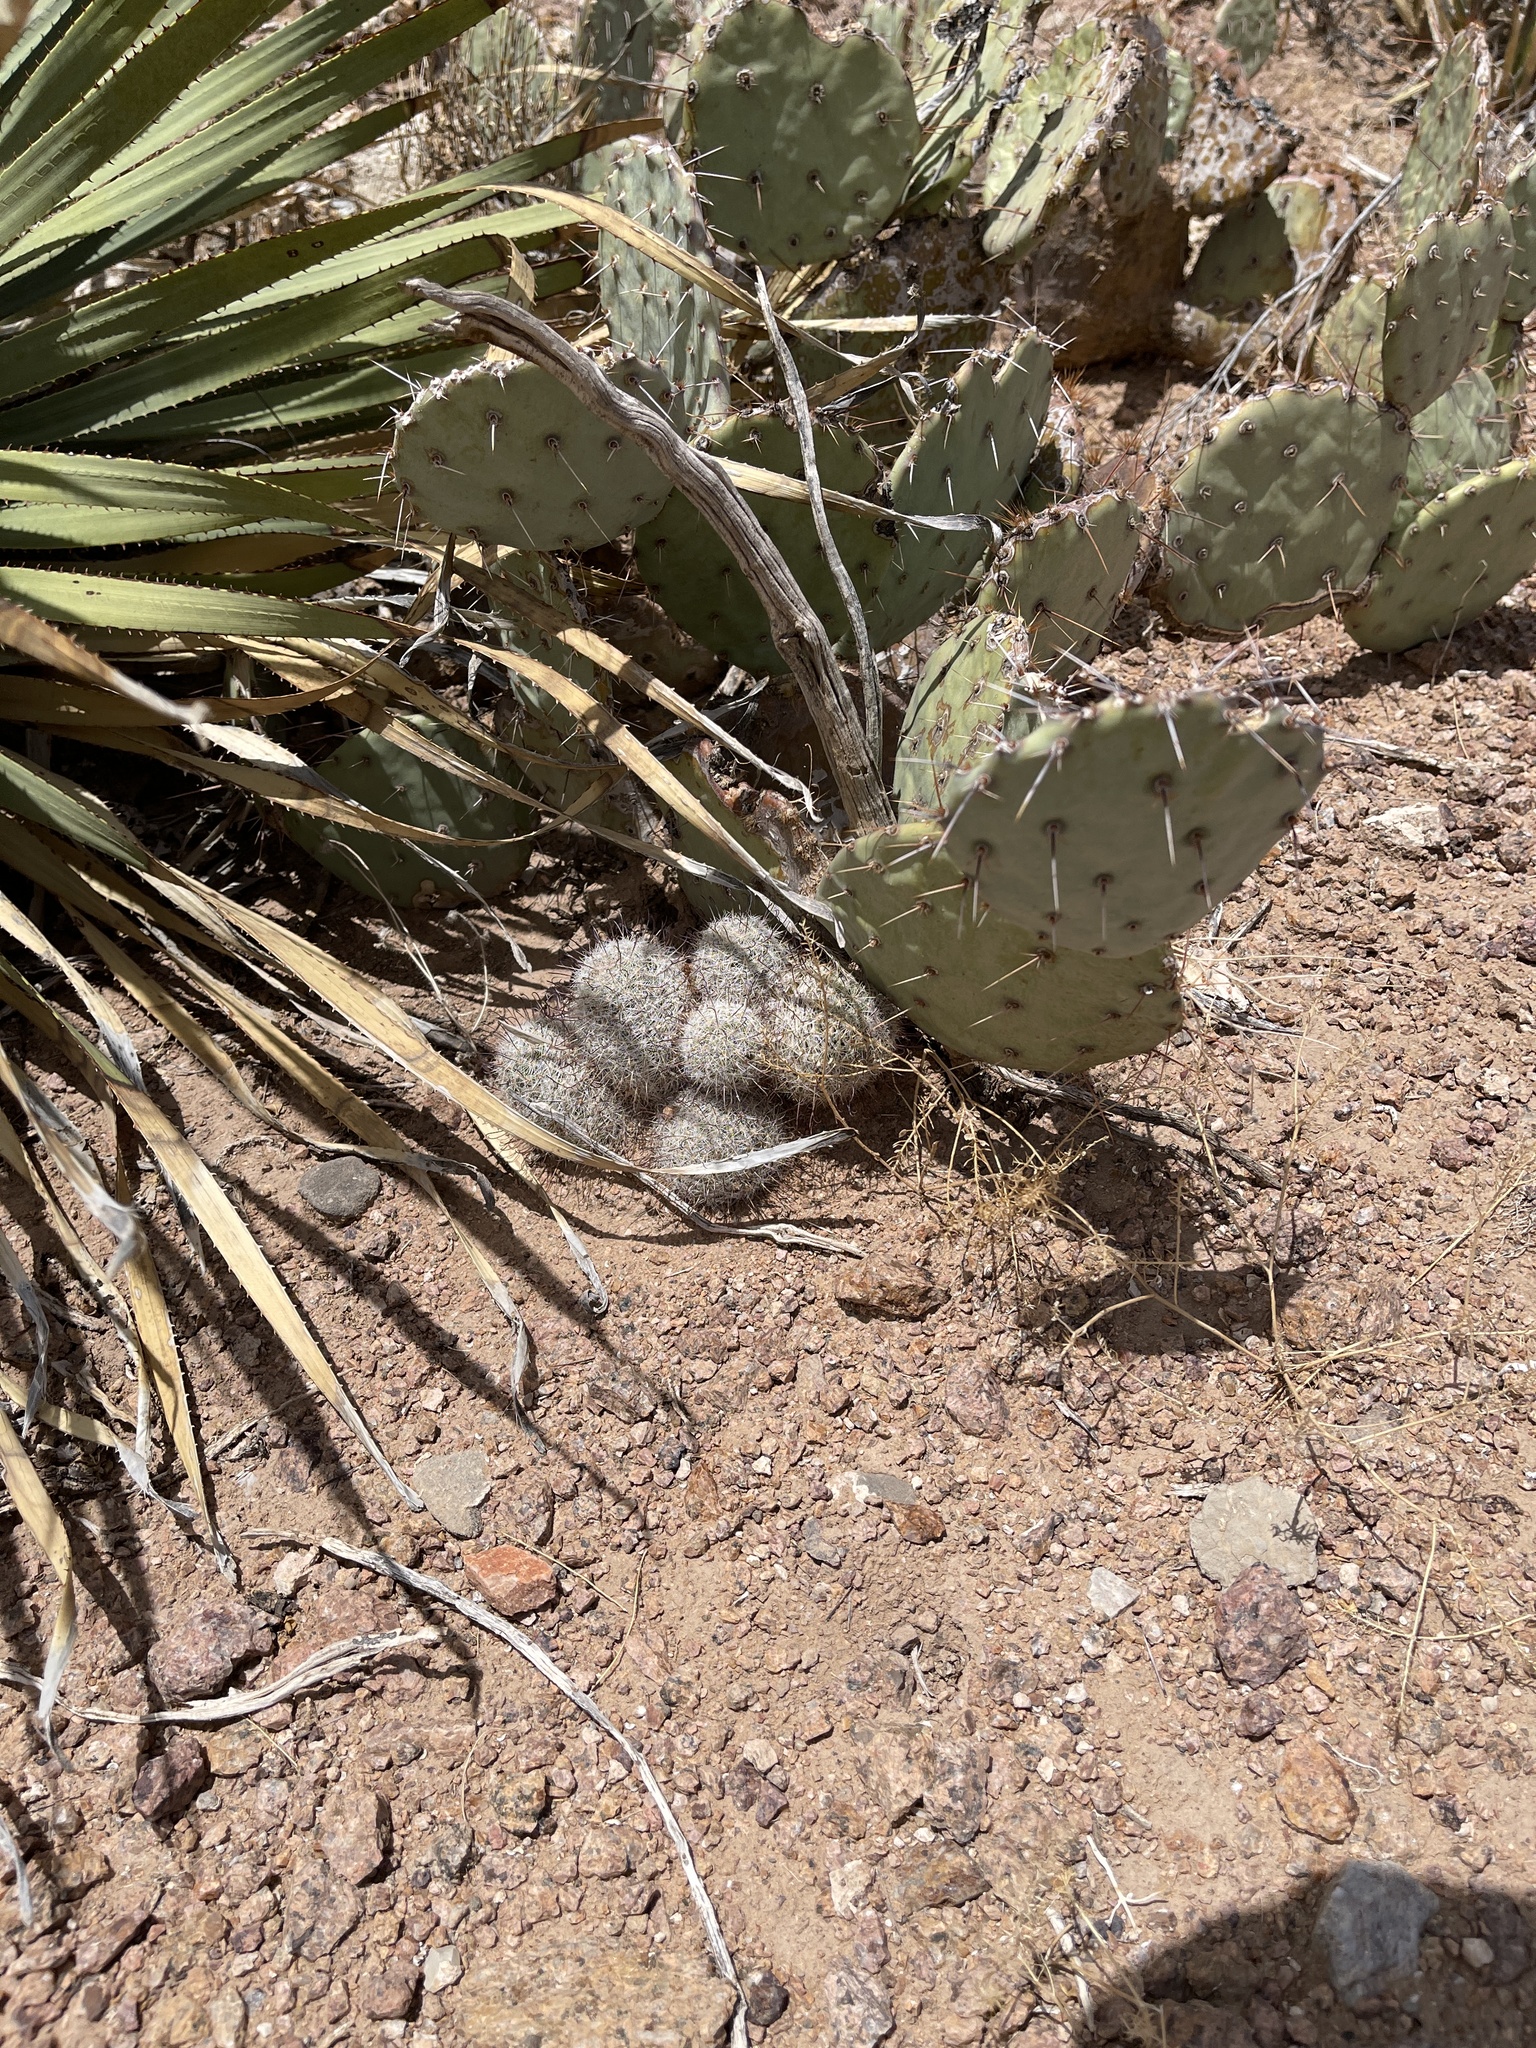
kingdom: Plantae
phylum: Tracheophyta
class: Magnoliopsida
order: Caryophyllales
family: Cactaceae
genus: Cochemiea
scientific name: Cochemiea grahamii
